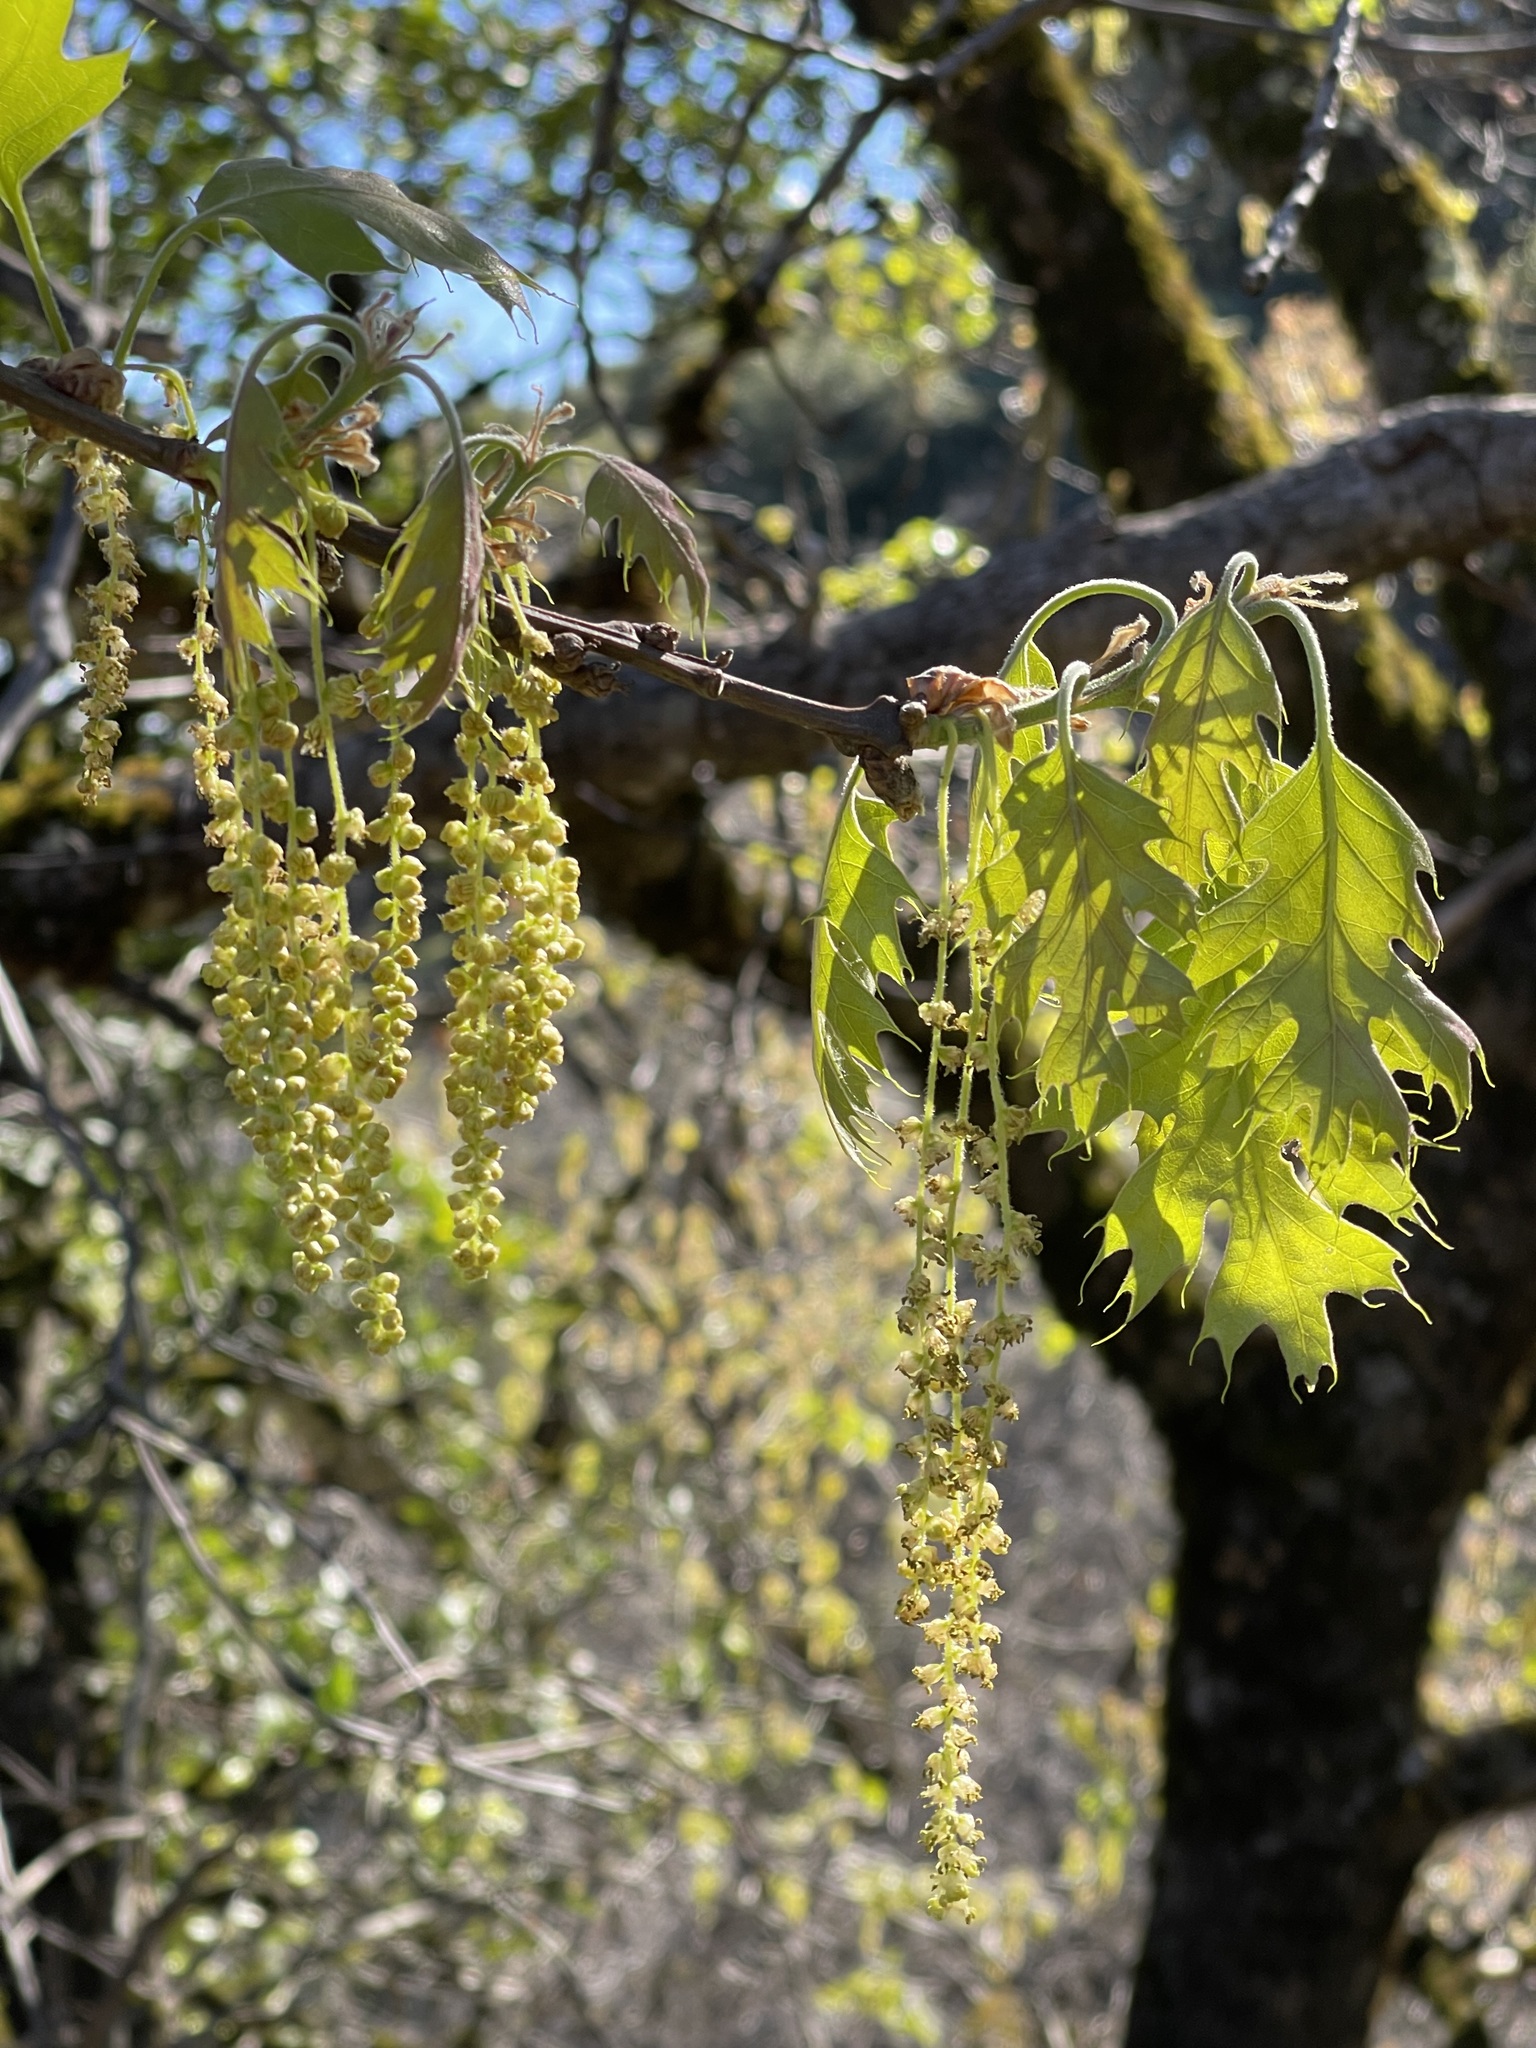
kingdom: Plantae
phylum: Tracheophyta
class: Magnoliopsida
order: Fagales
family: Fagaceae
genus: Quercus
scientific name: Quercus kelloggii
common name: California black oak
